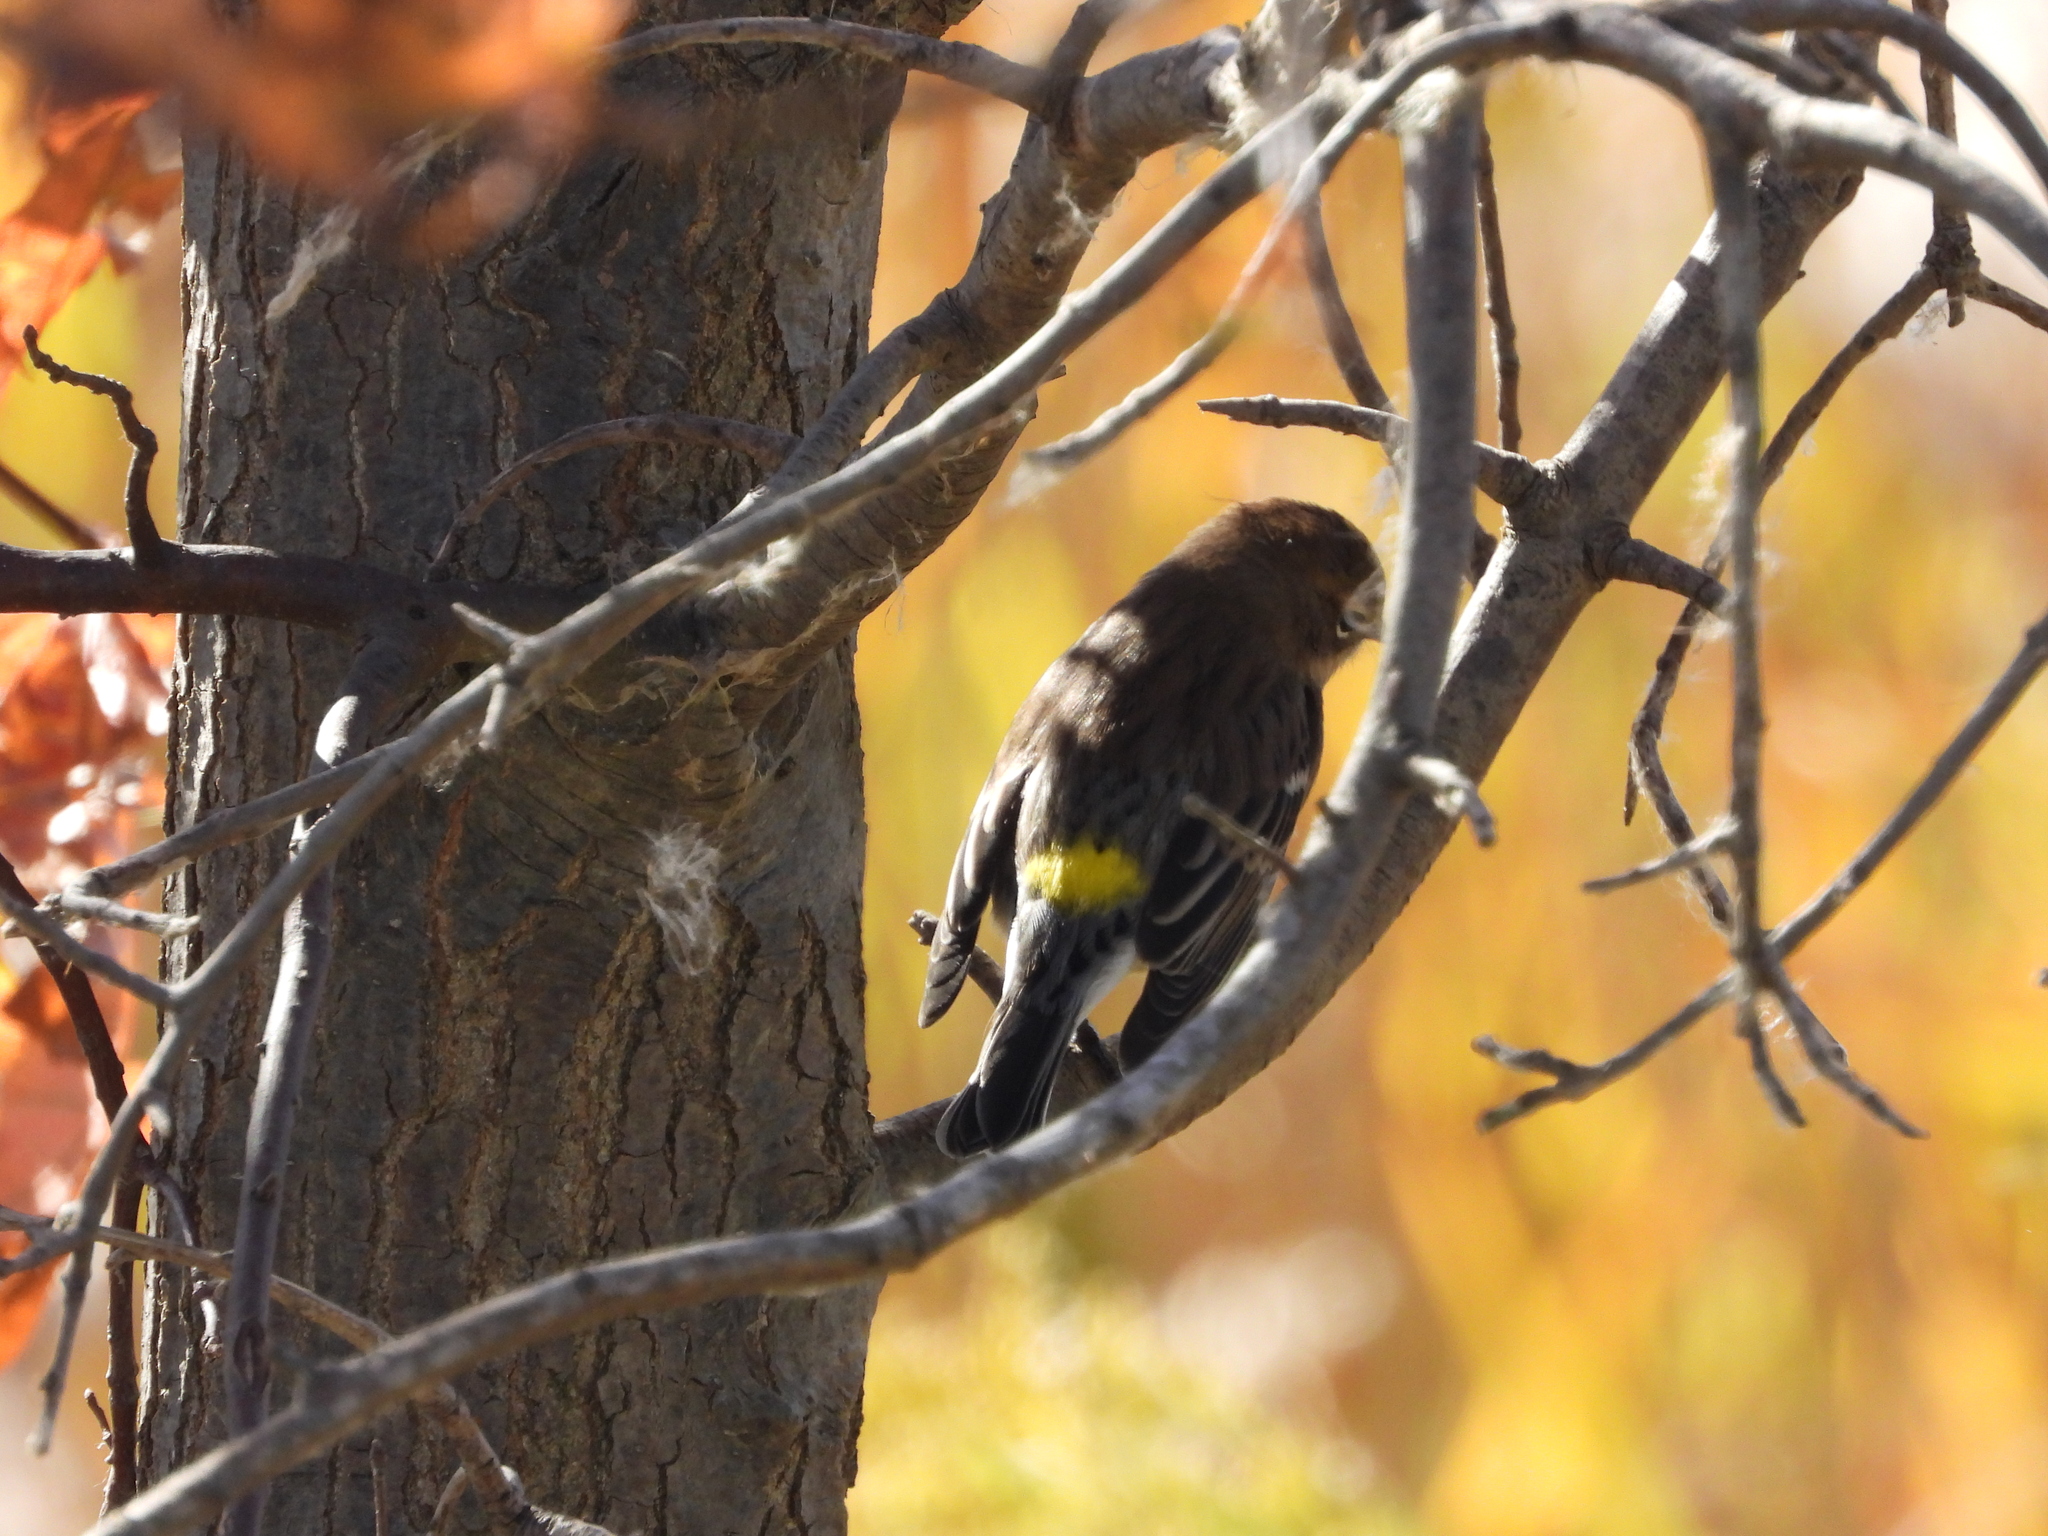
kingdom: Animalia
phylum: Chordata
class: Aves
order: Passeriformes
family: Parulidae
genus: Setophaga
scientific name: Setophaga coronata
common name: Myrtle warbler
